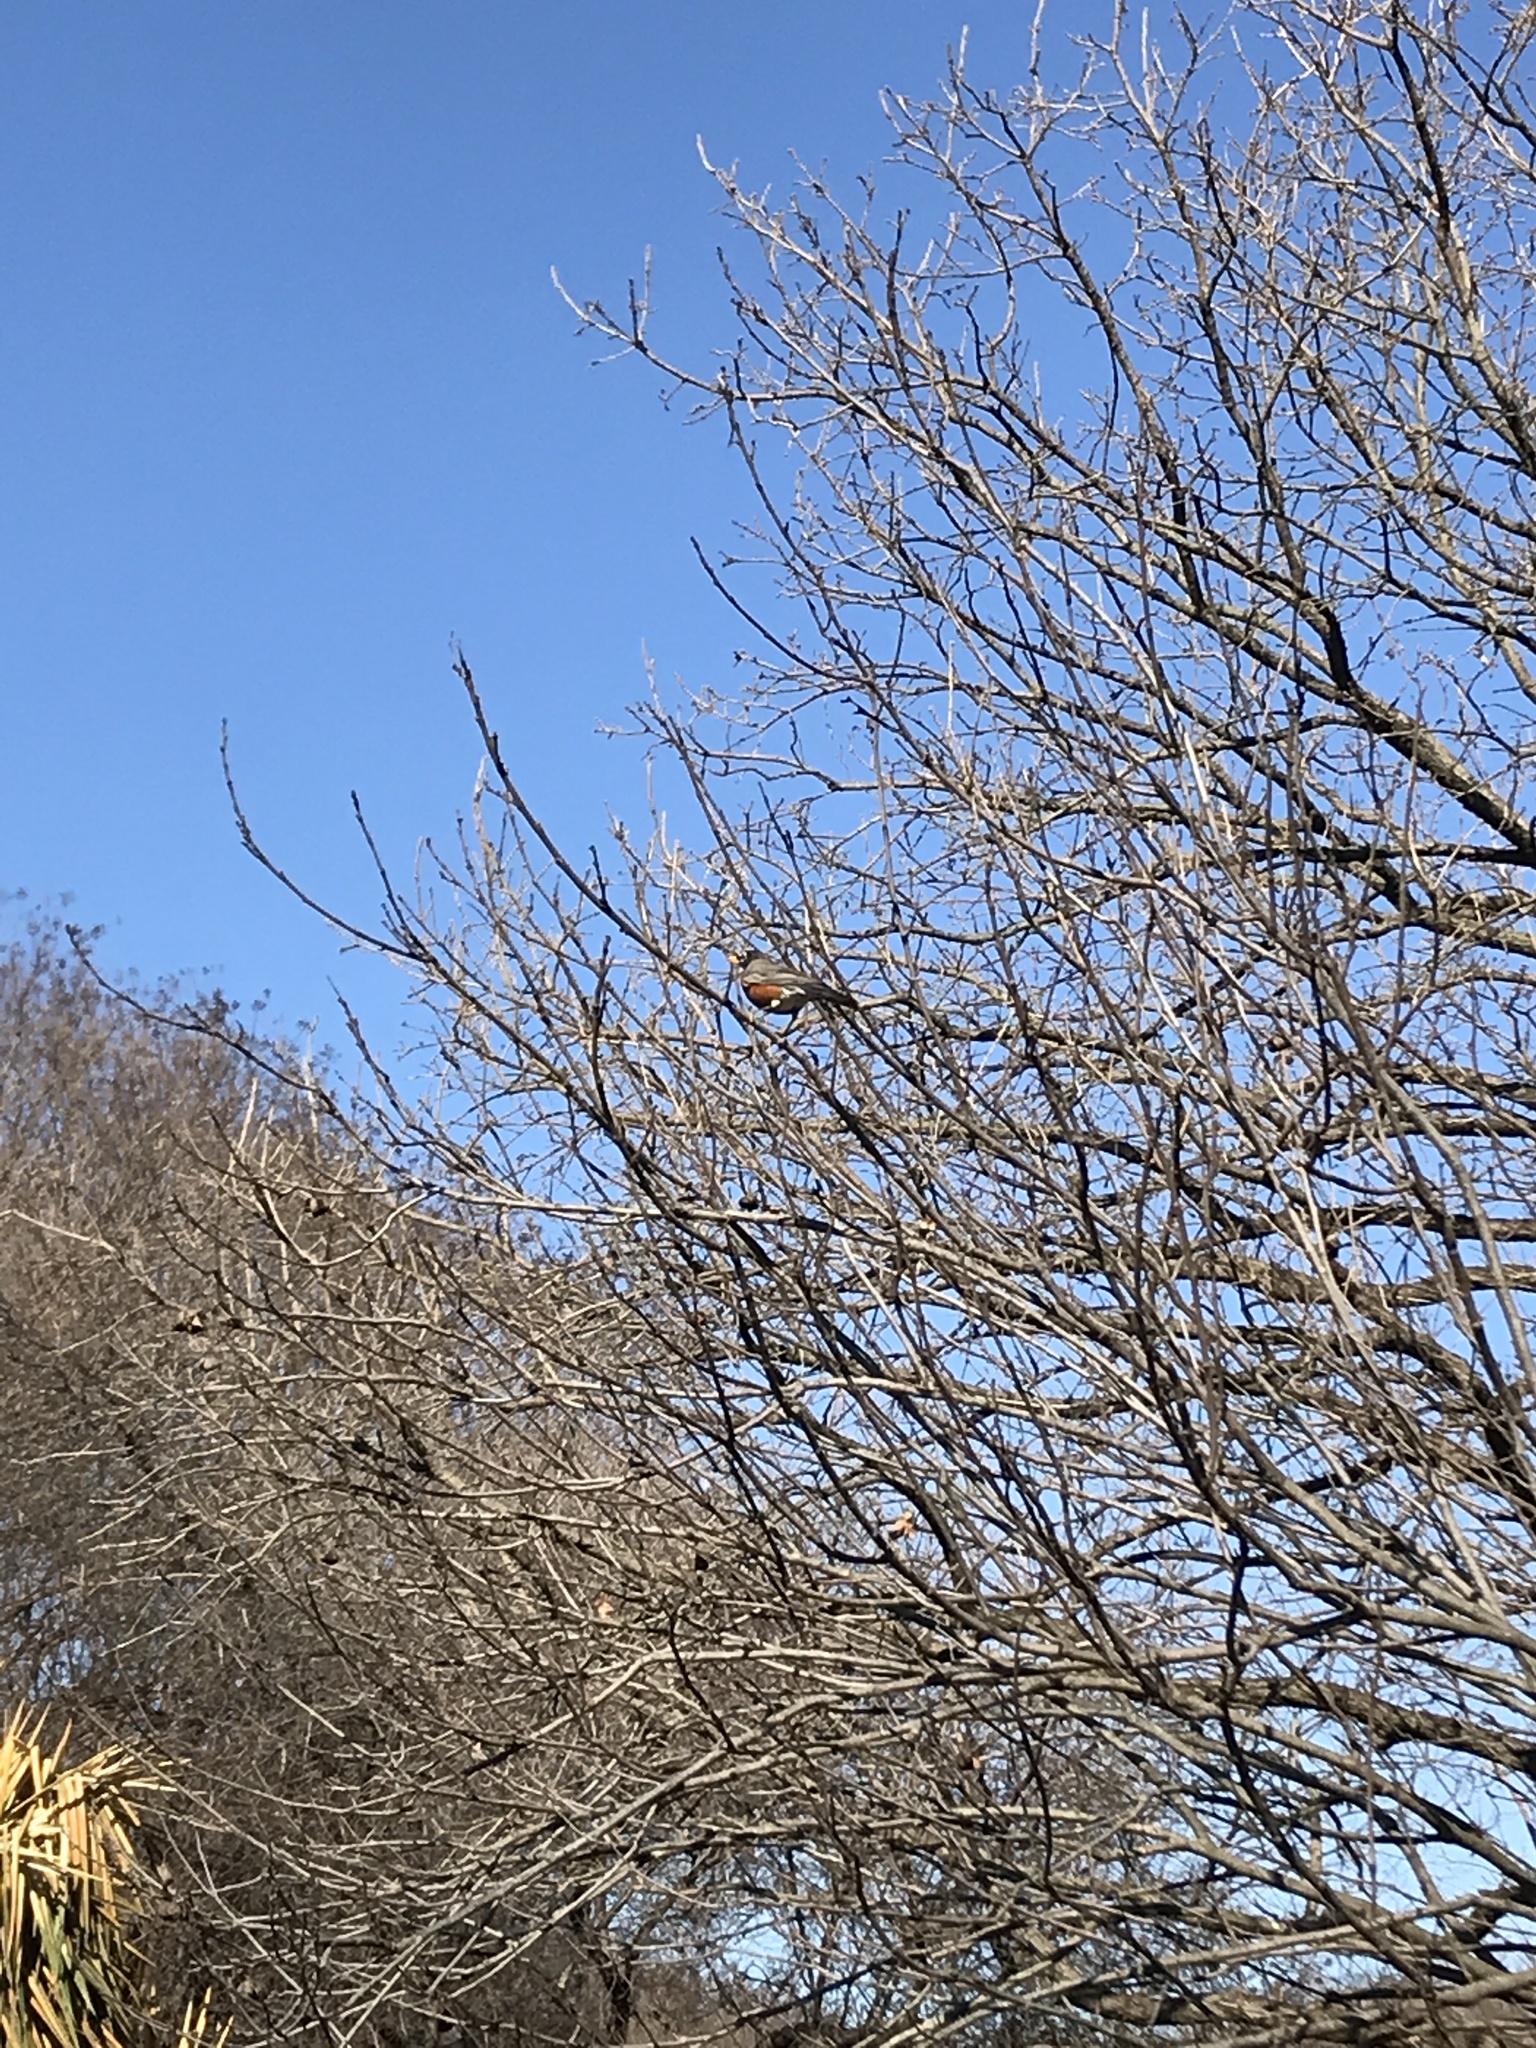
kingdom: Animalia
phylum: Chordata
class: Aves
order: Passeriformes
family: Turdidae
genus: Turdus
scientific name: Turdus migratorius
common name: American robin
